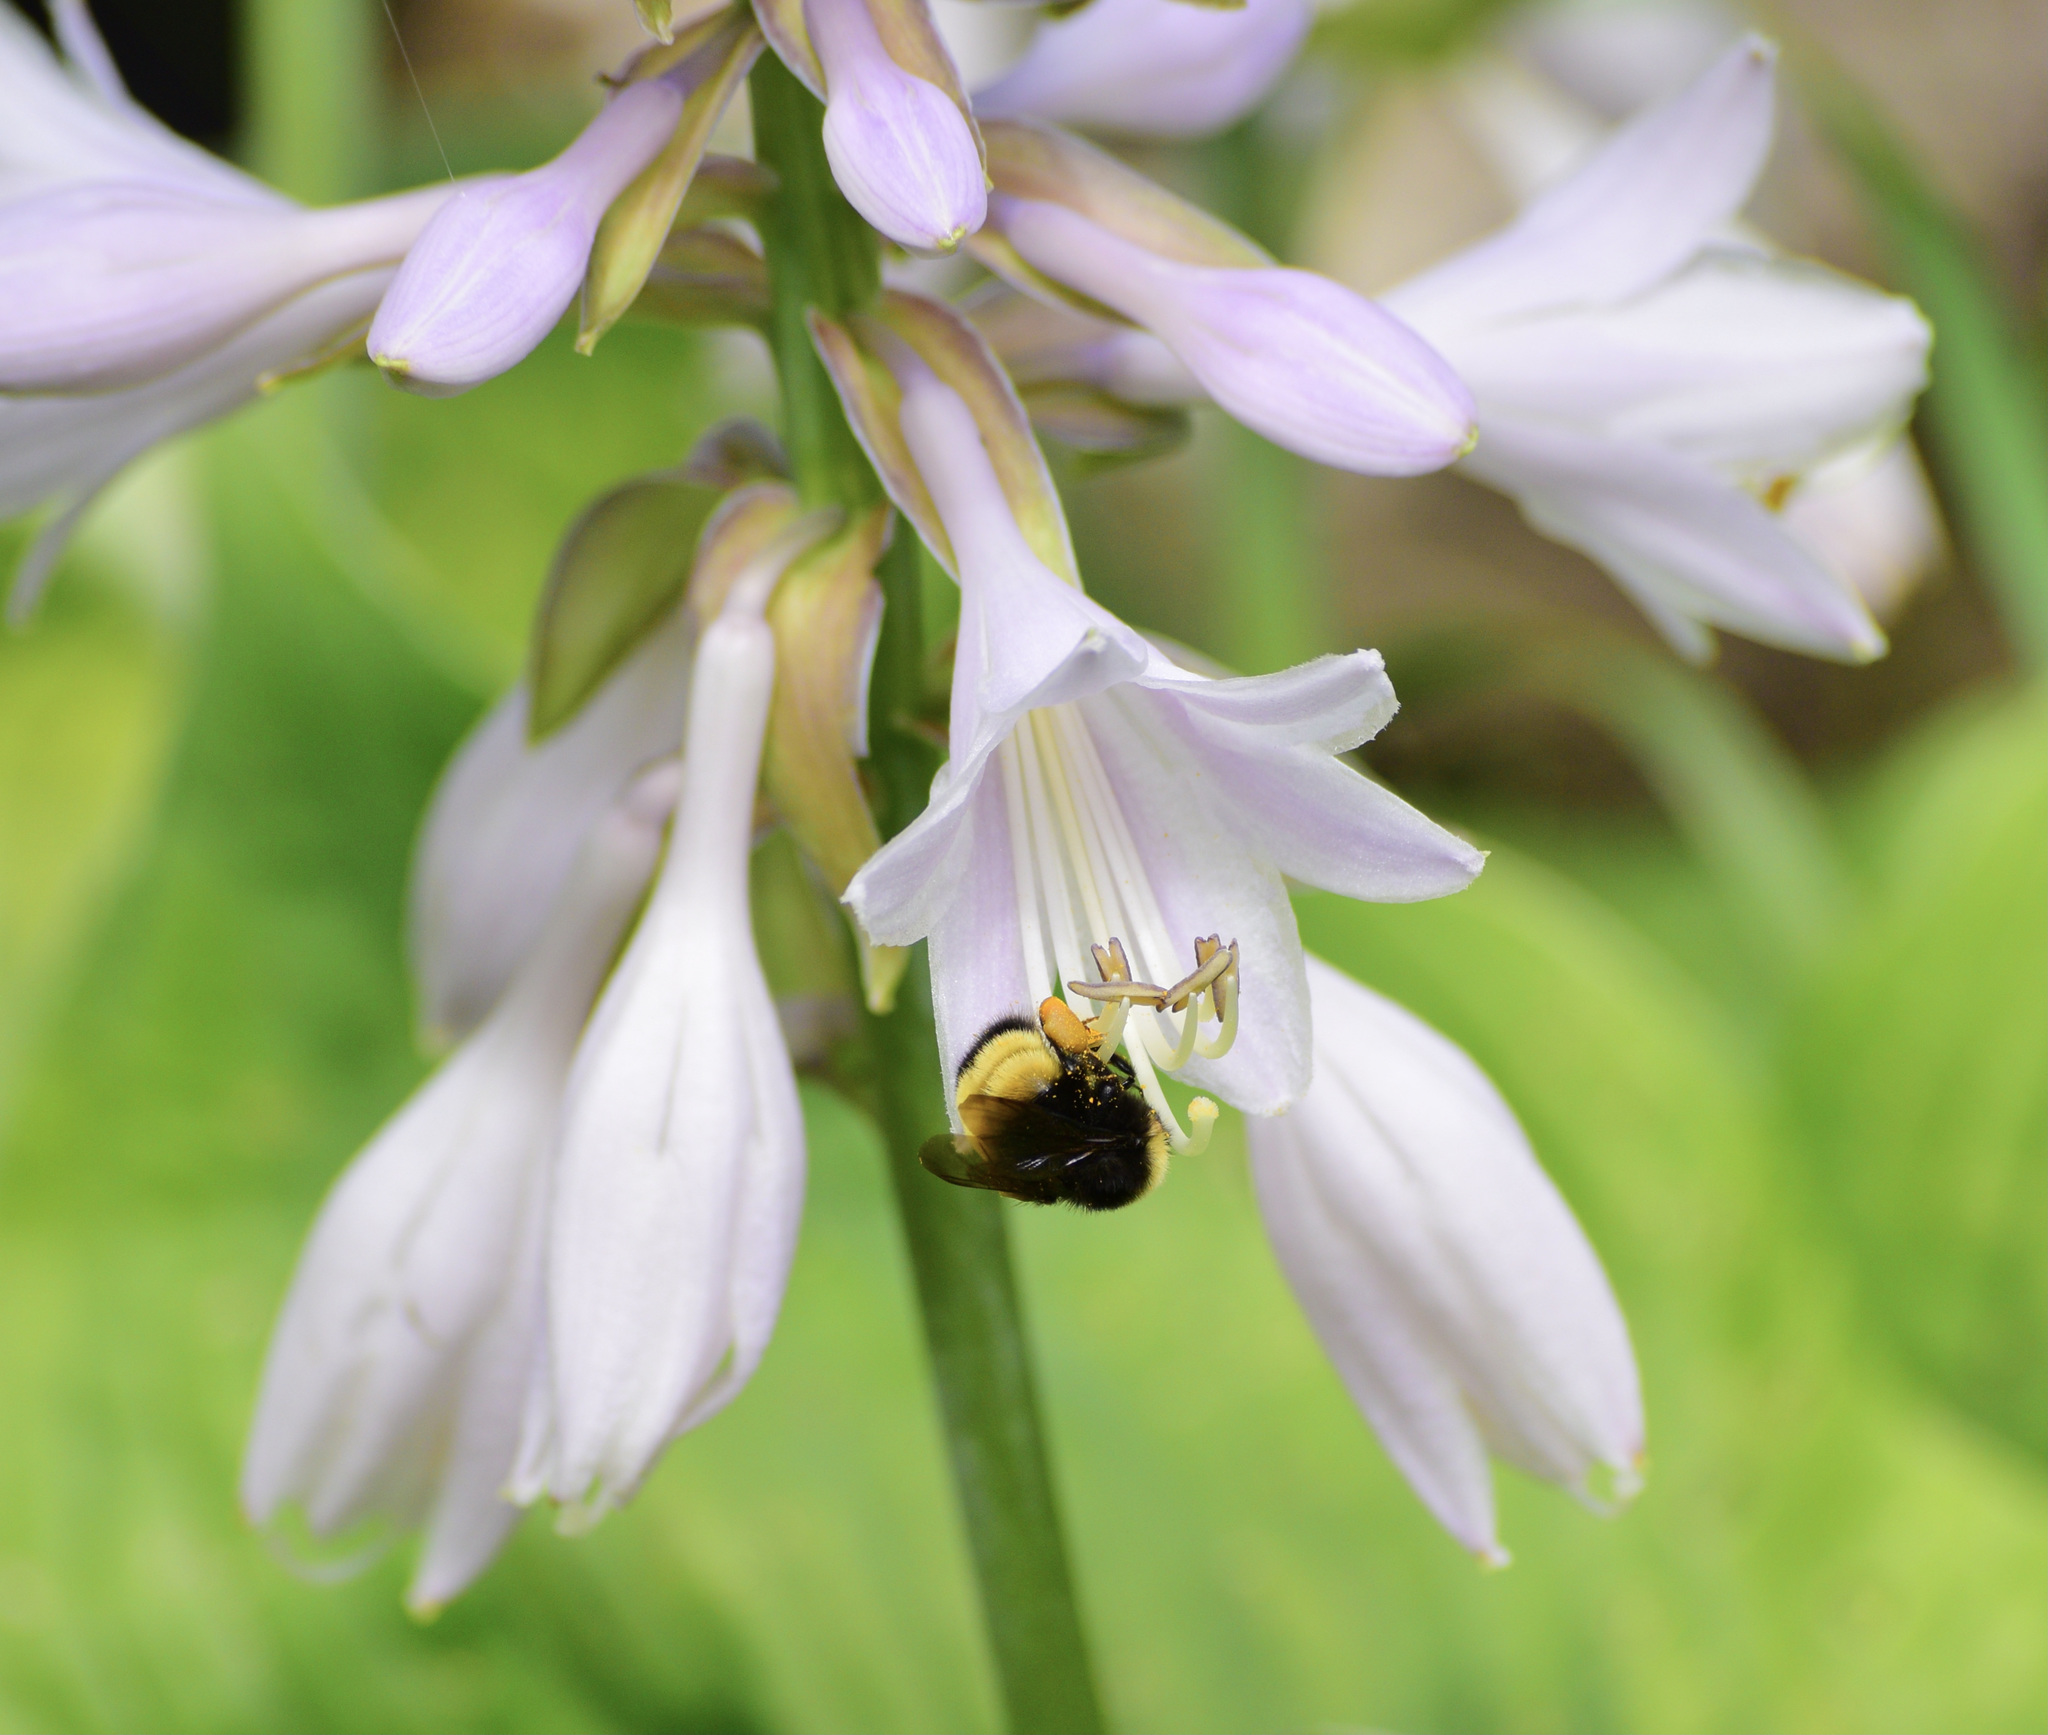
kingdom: Animalia
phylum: Arthropoda
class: Insecta
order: Hymenoptera
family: Apidae
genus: Bombus
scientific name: Bombus terricola
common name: Yellow-banded bumble bee
